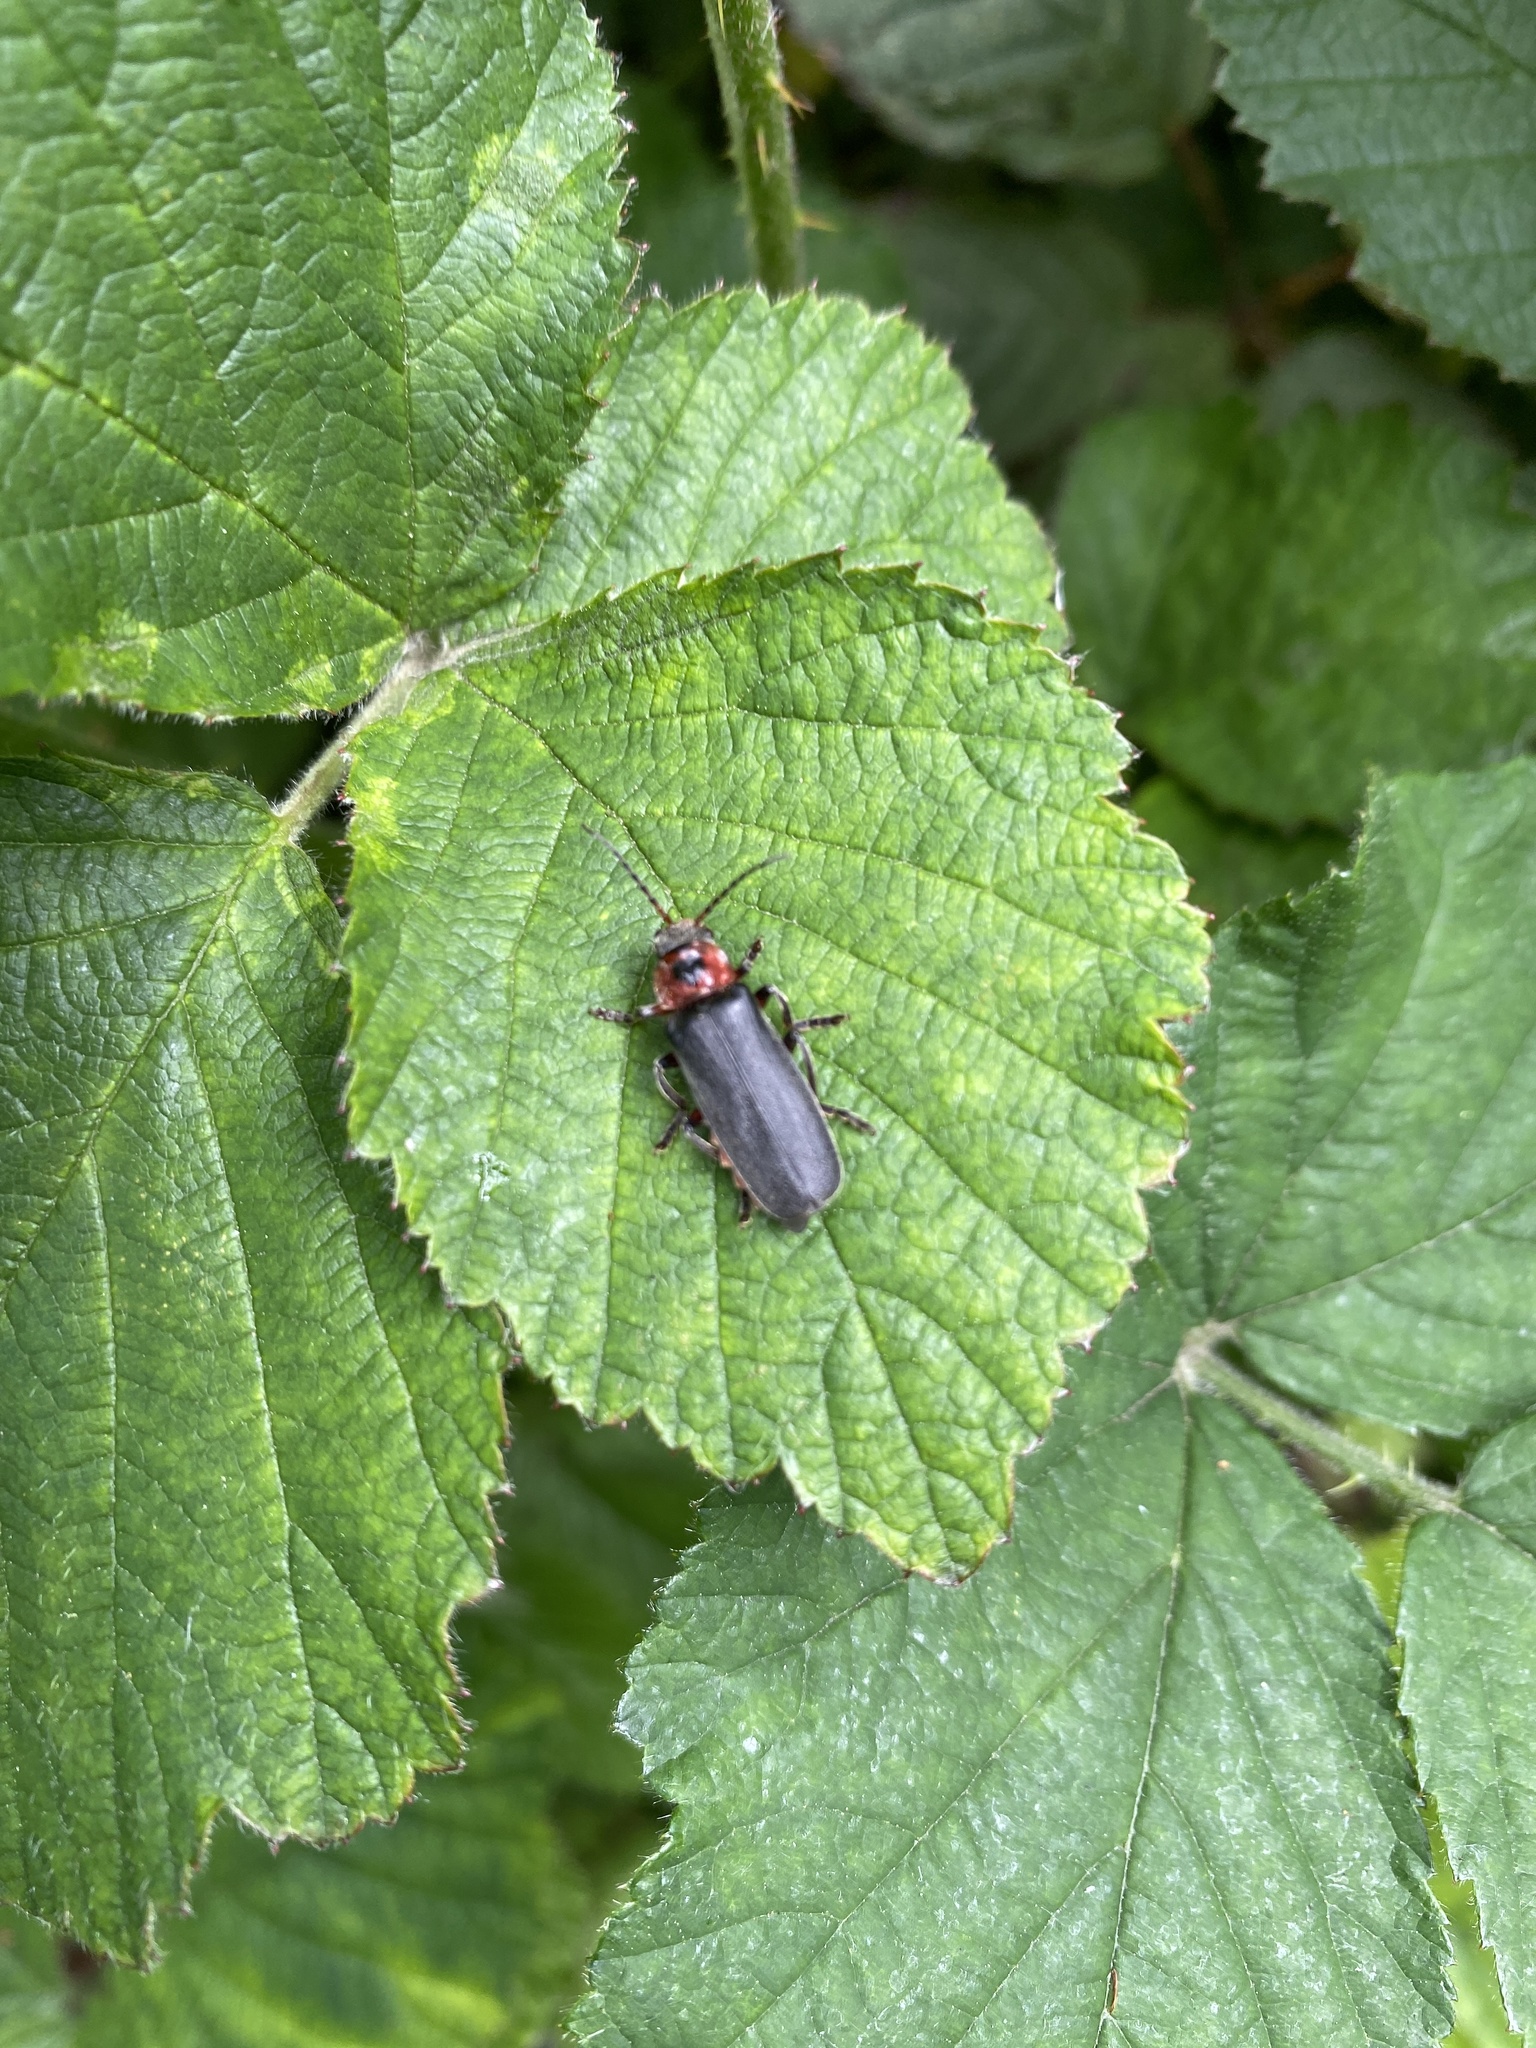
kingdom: Animalia
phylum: Arthropoda
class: Insecta
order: Coleoptera
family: Cantharidae
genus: Cantharis
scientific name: Cantharis rustica
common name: Soldier beetle
